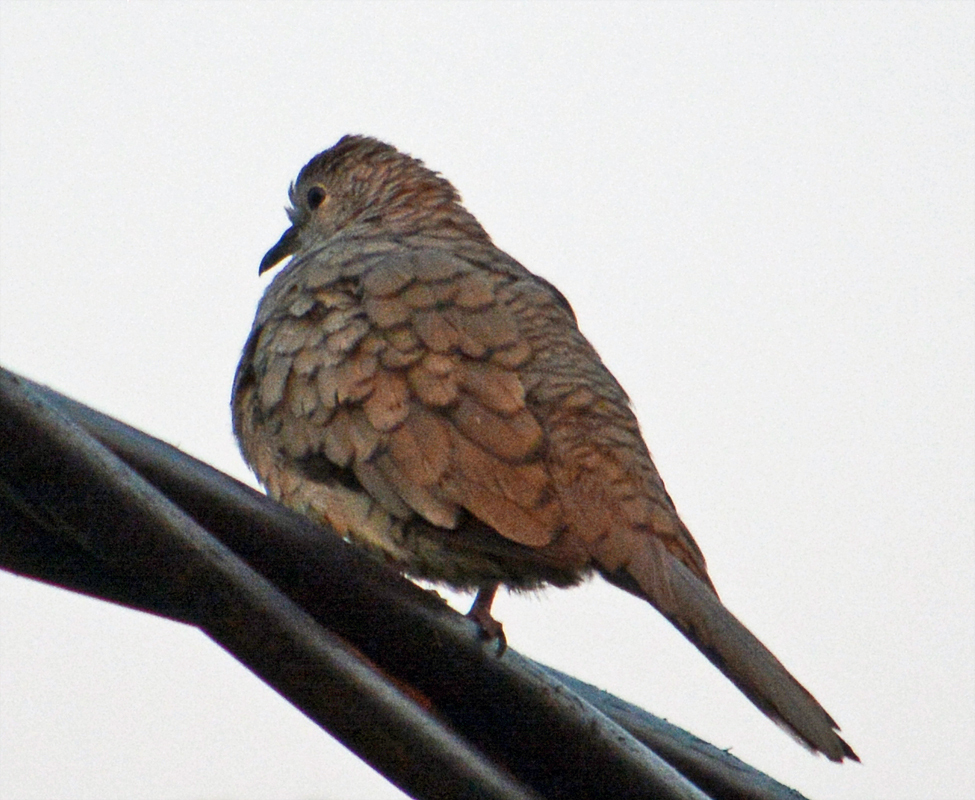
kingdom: Animalia
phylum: Chordata
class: Aves
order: Columbiformes
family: Columbidae
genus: Columbina
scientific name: Columbina inca
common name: Inca dove
